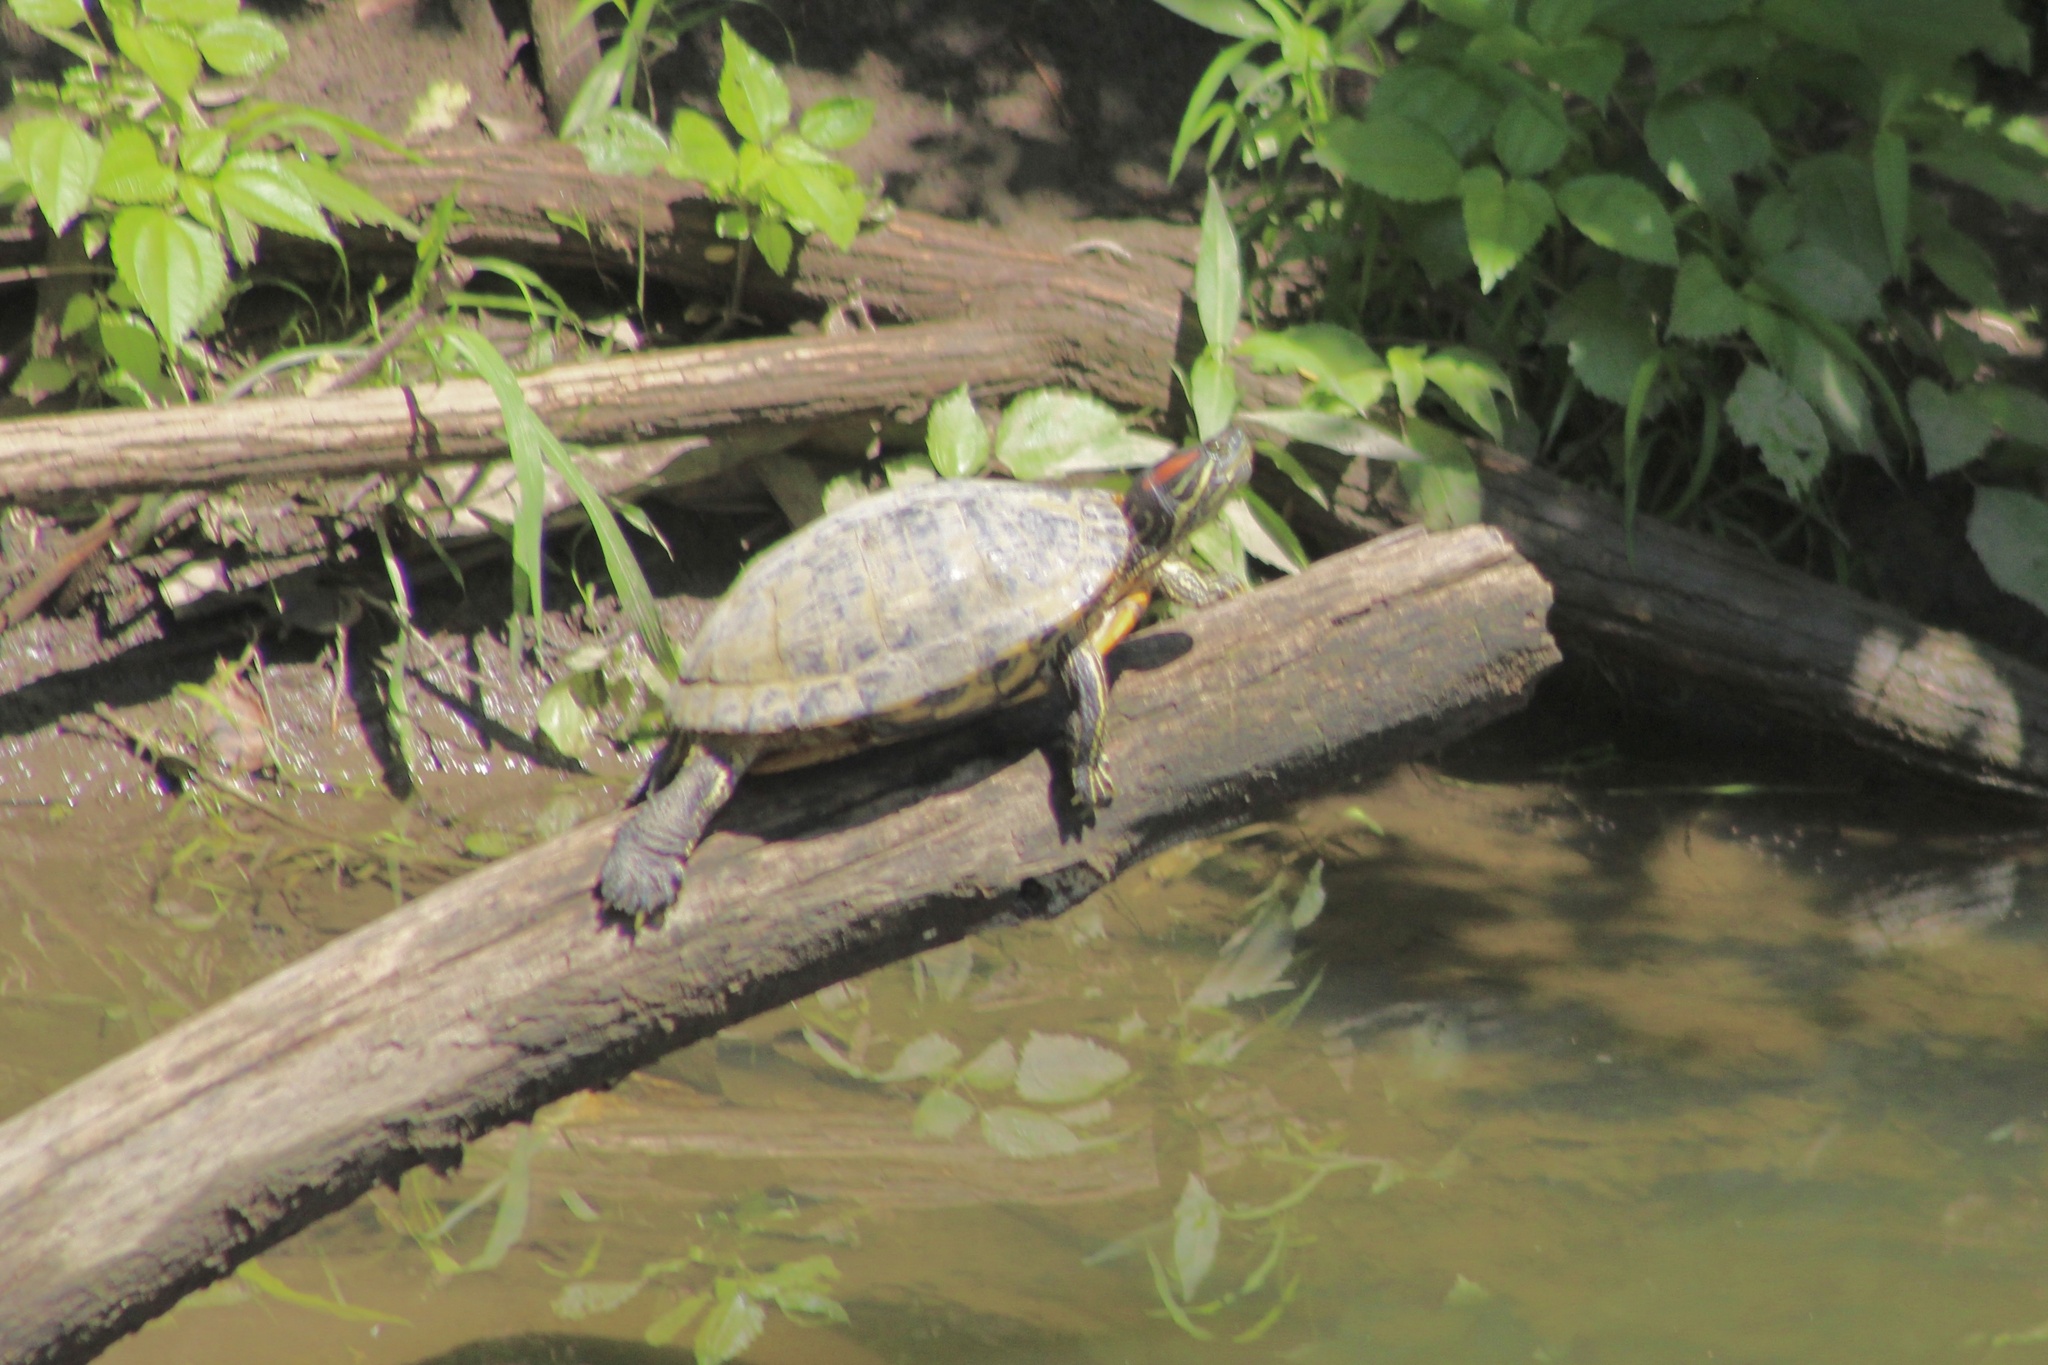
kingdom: Animalia
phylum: Chordata
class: Testudines
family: Emydidae
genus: Trachemys
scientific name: Trachemys scripta
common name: Slider
